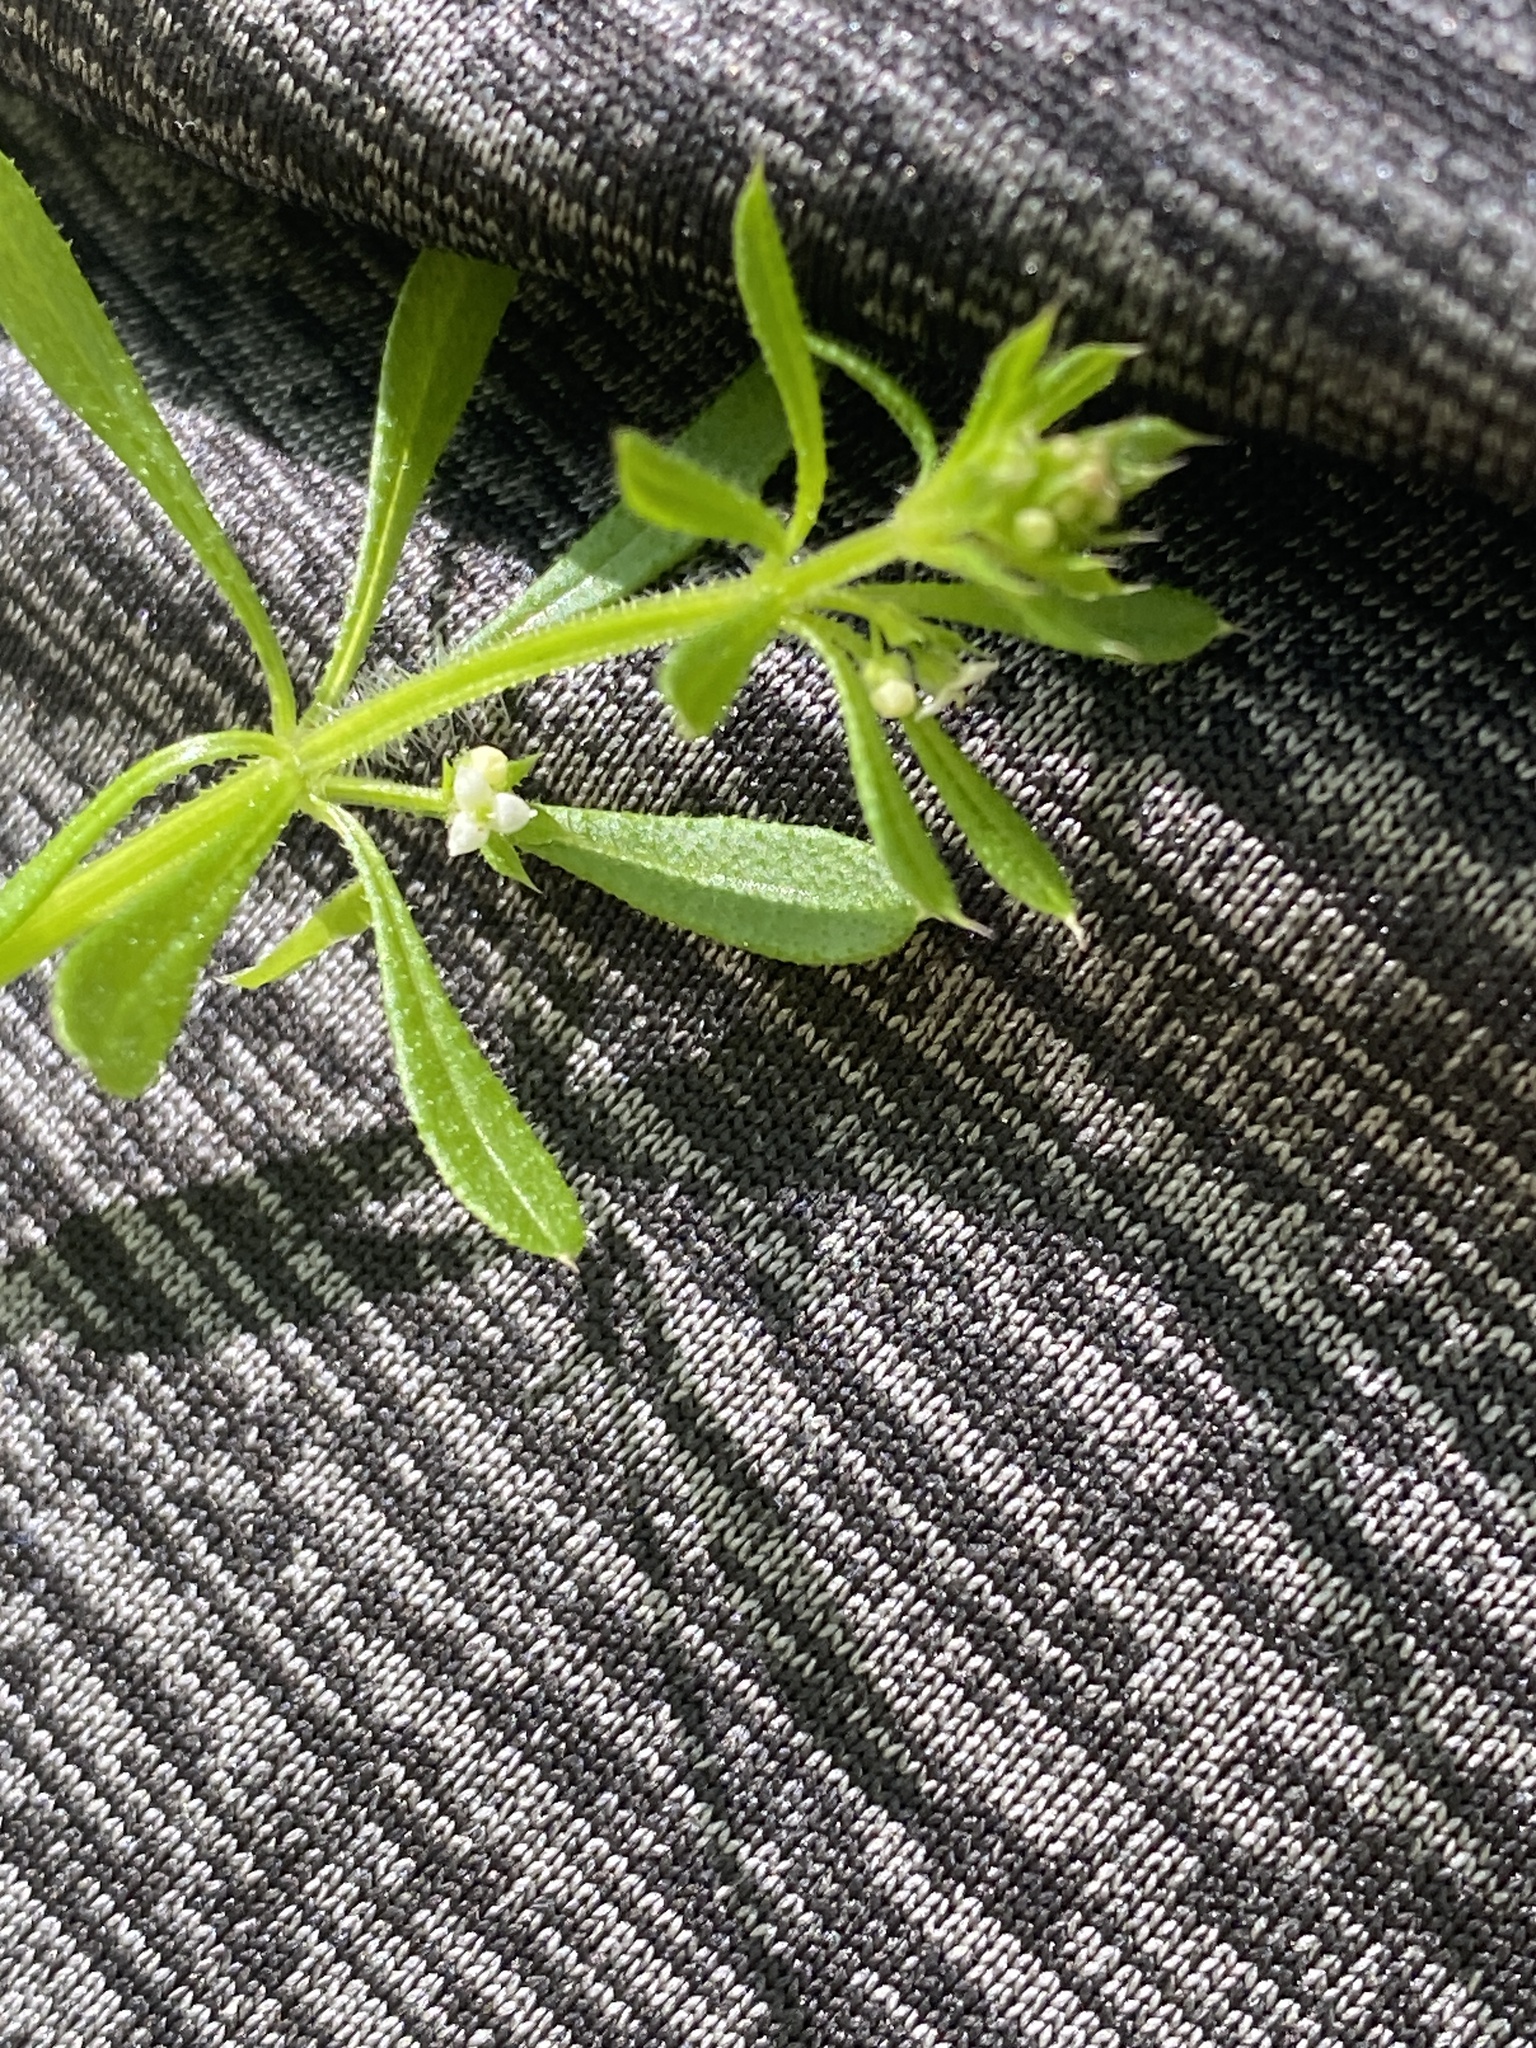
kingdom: Plantae
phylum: Tracheophyta
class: Magnoliopsida
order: Gentianales
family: Rubiaceae
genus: Galium
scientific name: Galium aparine
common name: Cleavers
